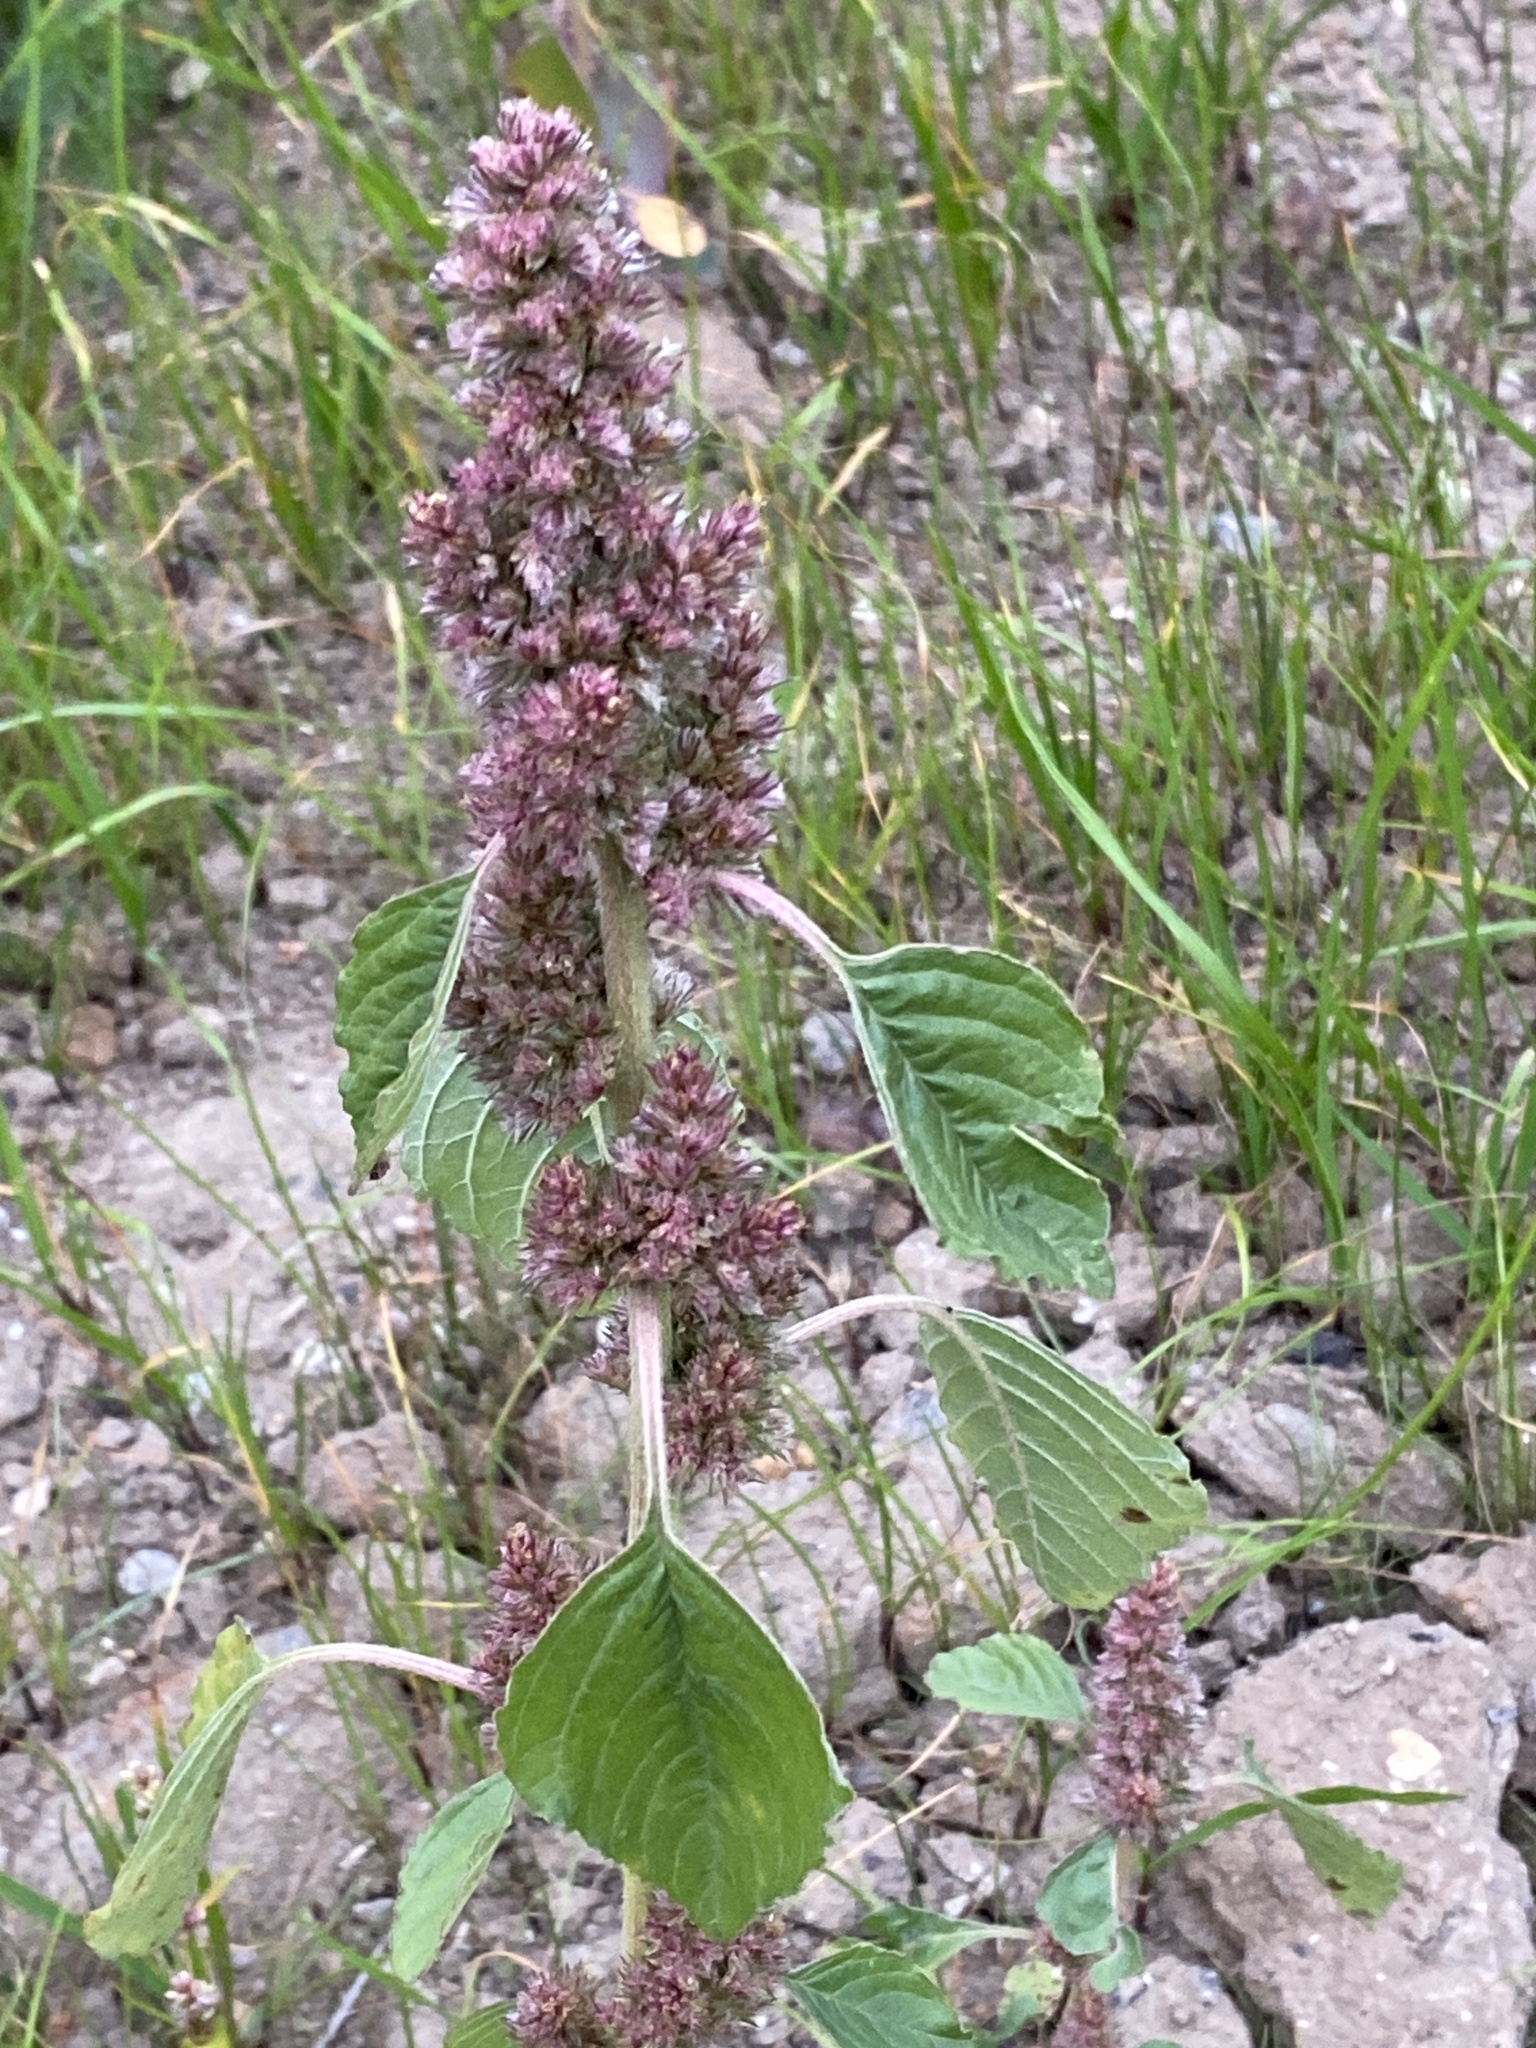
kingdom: Plantae
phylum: Tracheophyta
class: Magnoliopsida
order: Caryophyllales
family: Amaranthaceae
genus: Amaranthus
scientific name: Amaranthus retroflexus
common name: Redroot amaranth
